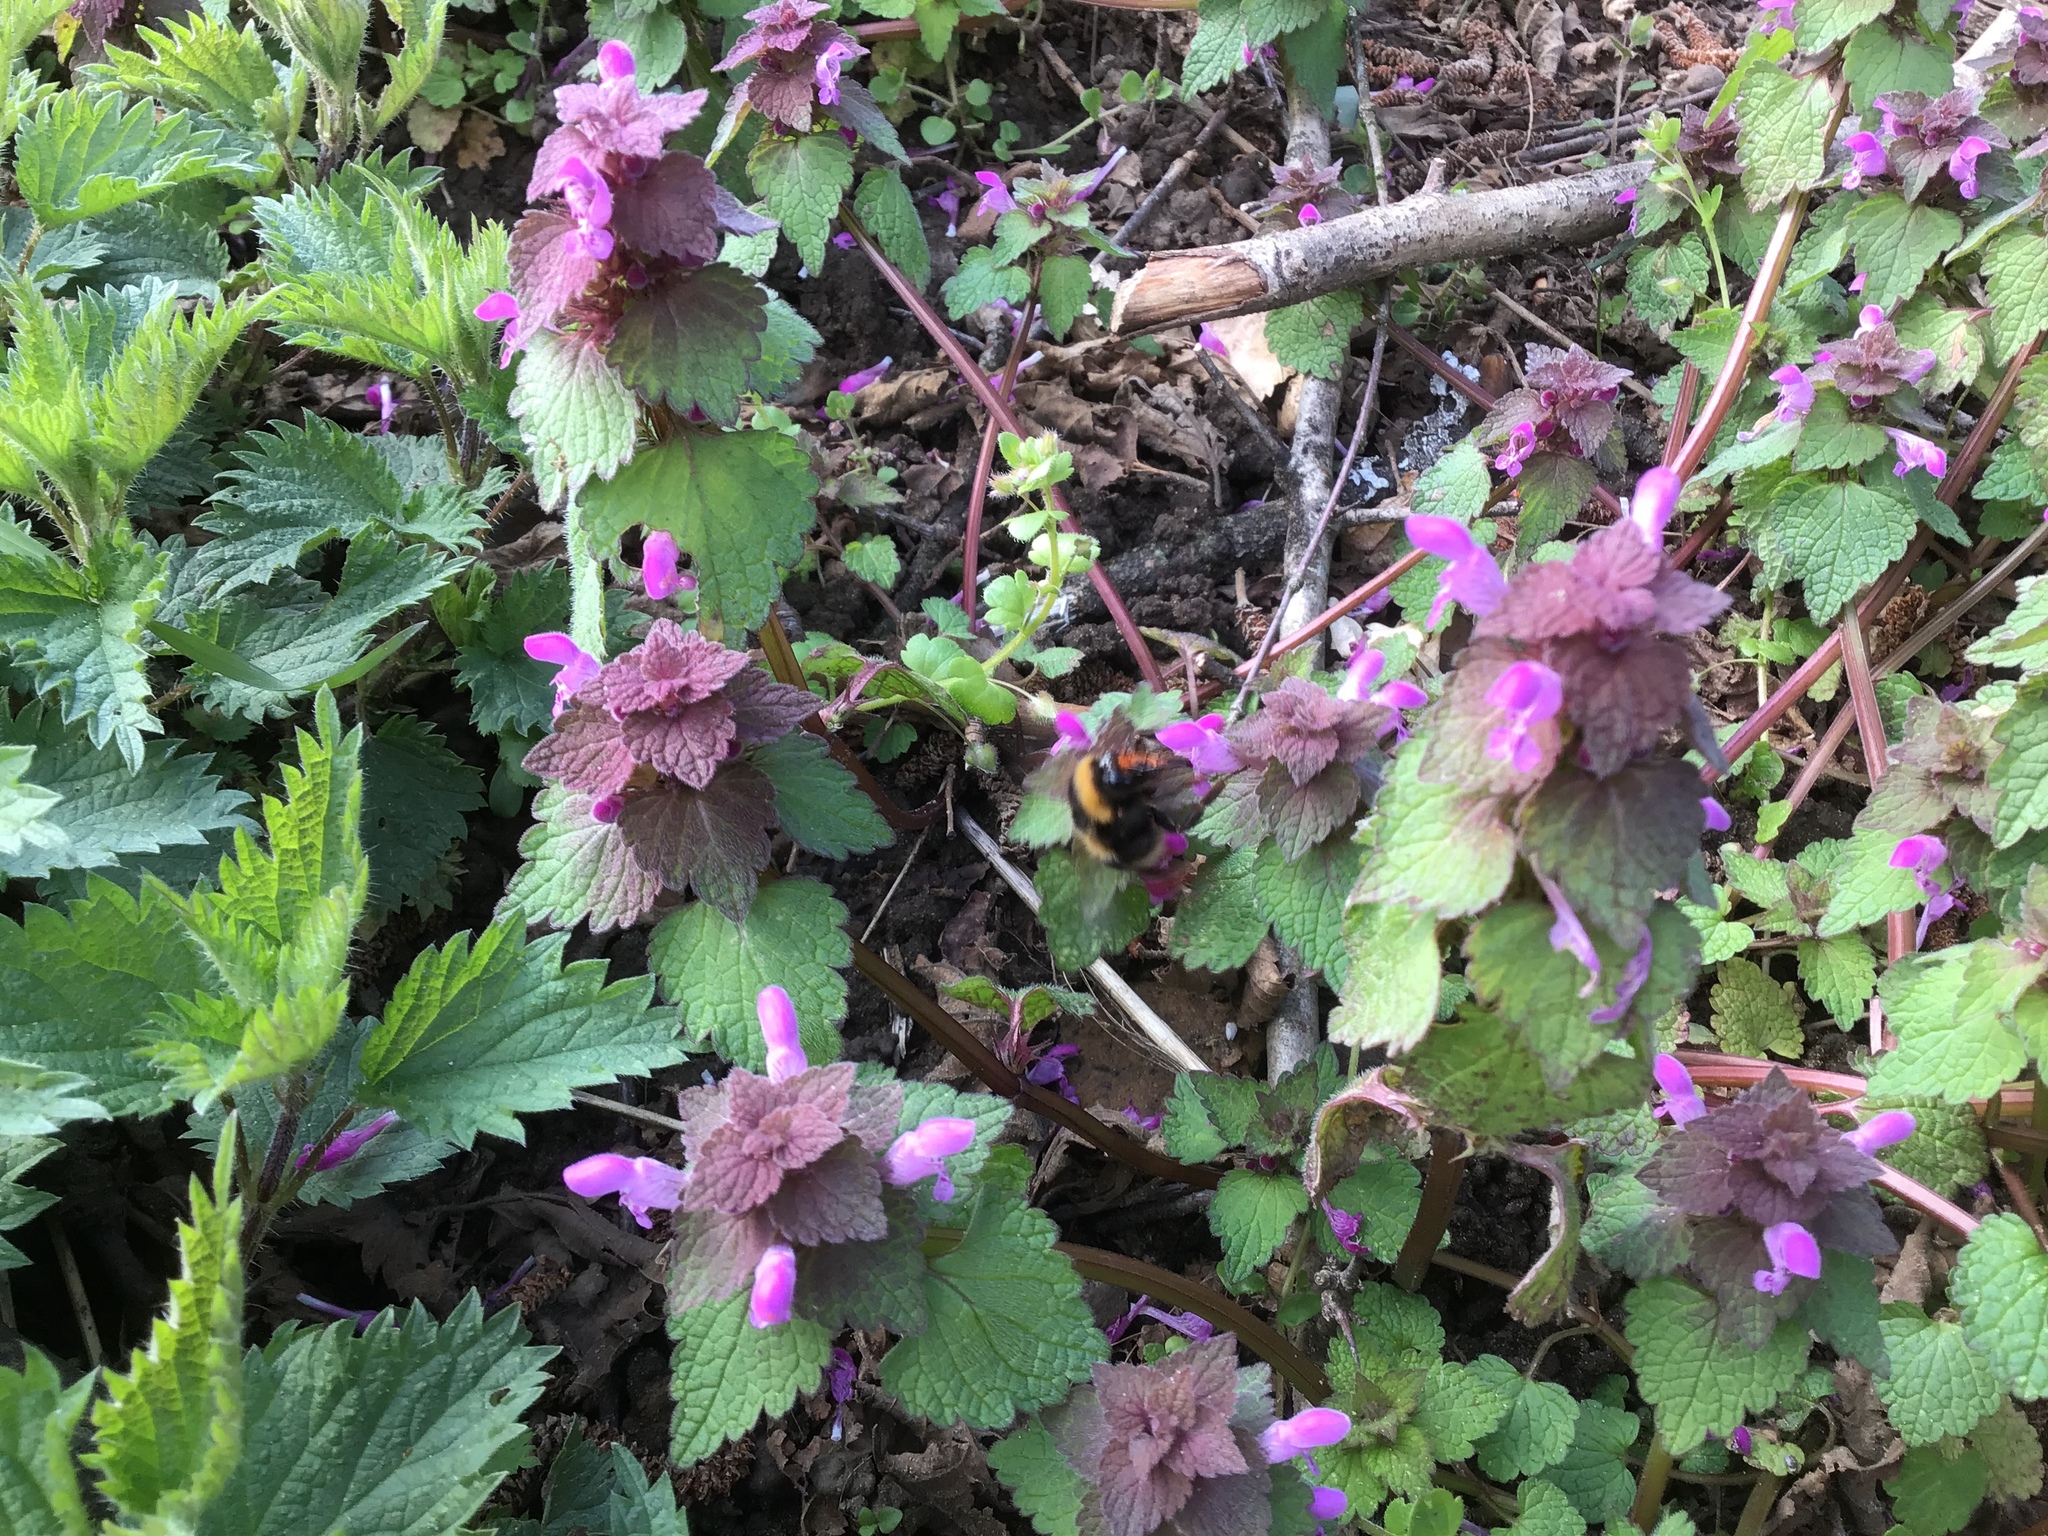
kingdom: Plantae
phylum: Tracheophyta
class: Magnoliopsida
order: Lamiales
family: Lamiaceae
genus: Lamium
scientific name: Lamium purpureum
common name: Red dead-nettle
